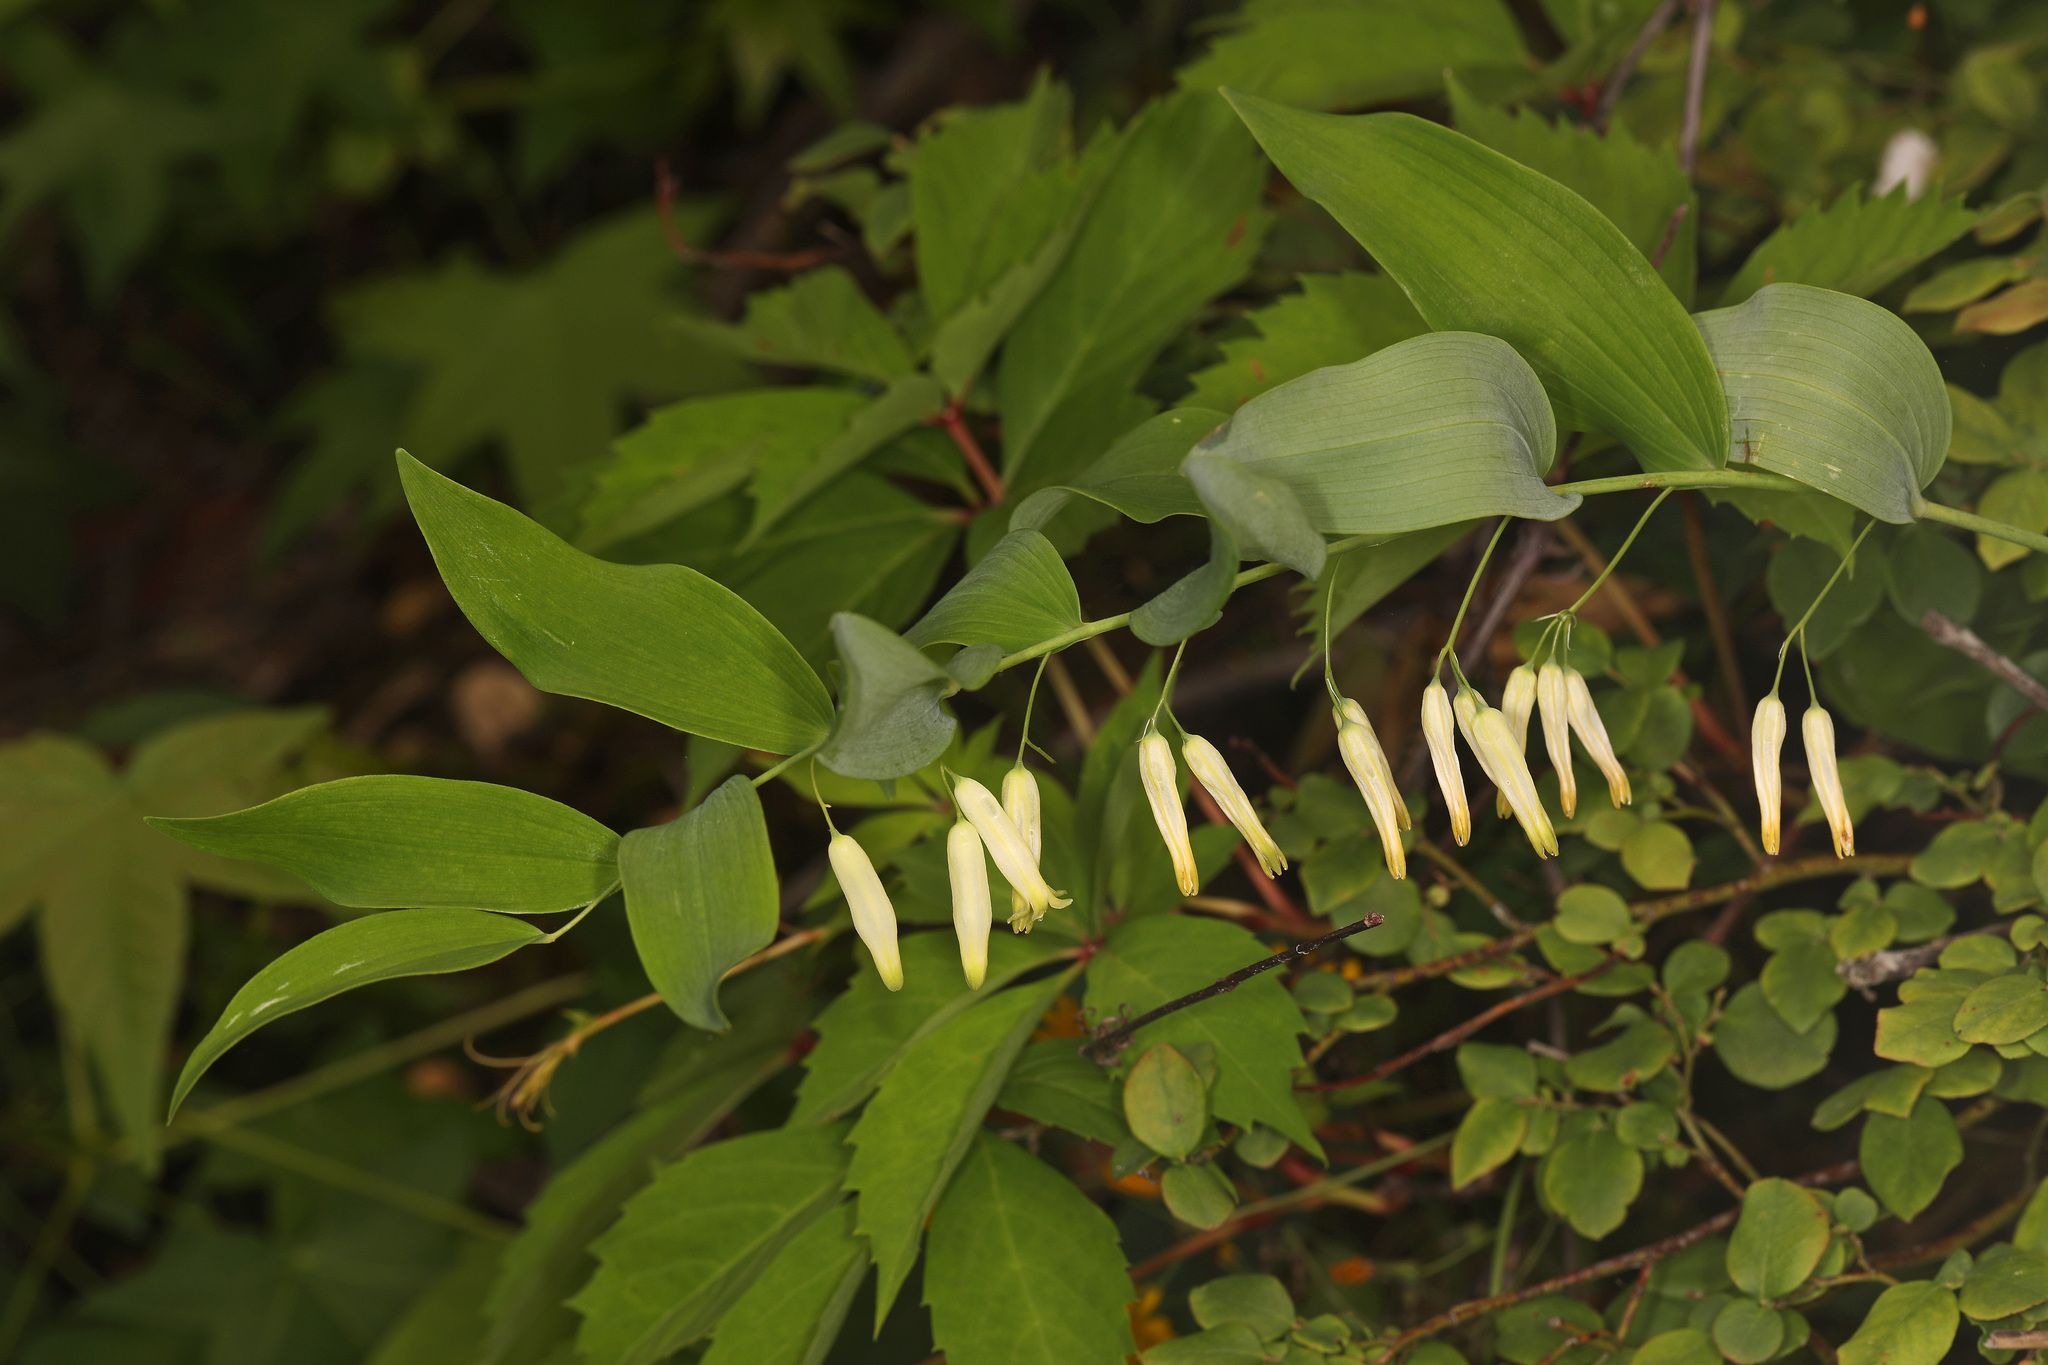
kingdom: Plantae
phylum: Tracheophyta
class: Liliopsida
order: Asparagales
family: Asparagaceae
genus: Polygonatum
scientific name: Polygonatum biflorum
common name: American solomon's-seal
